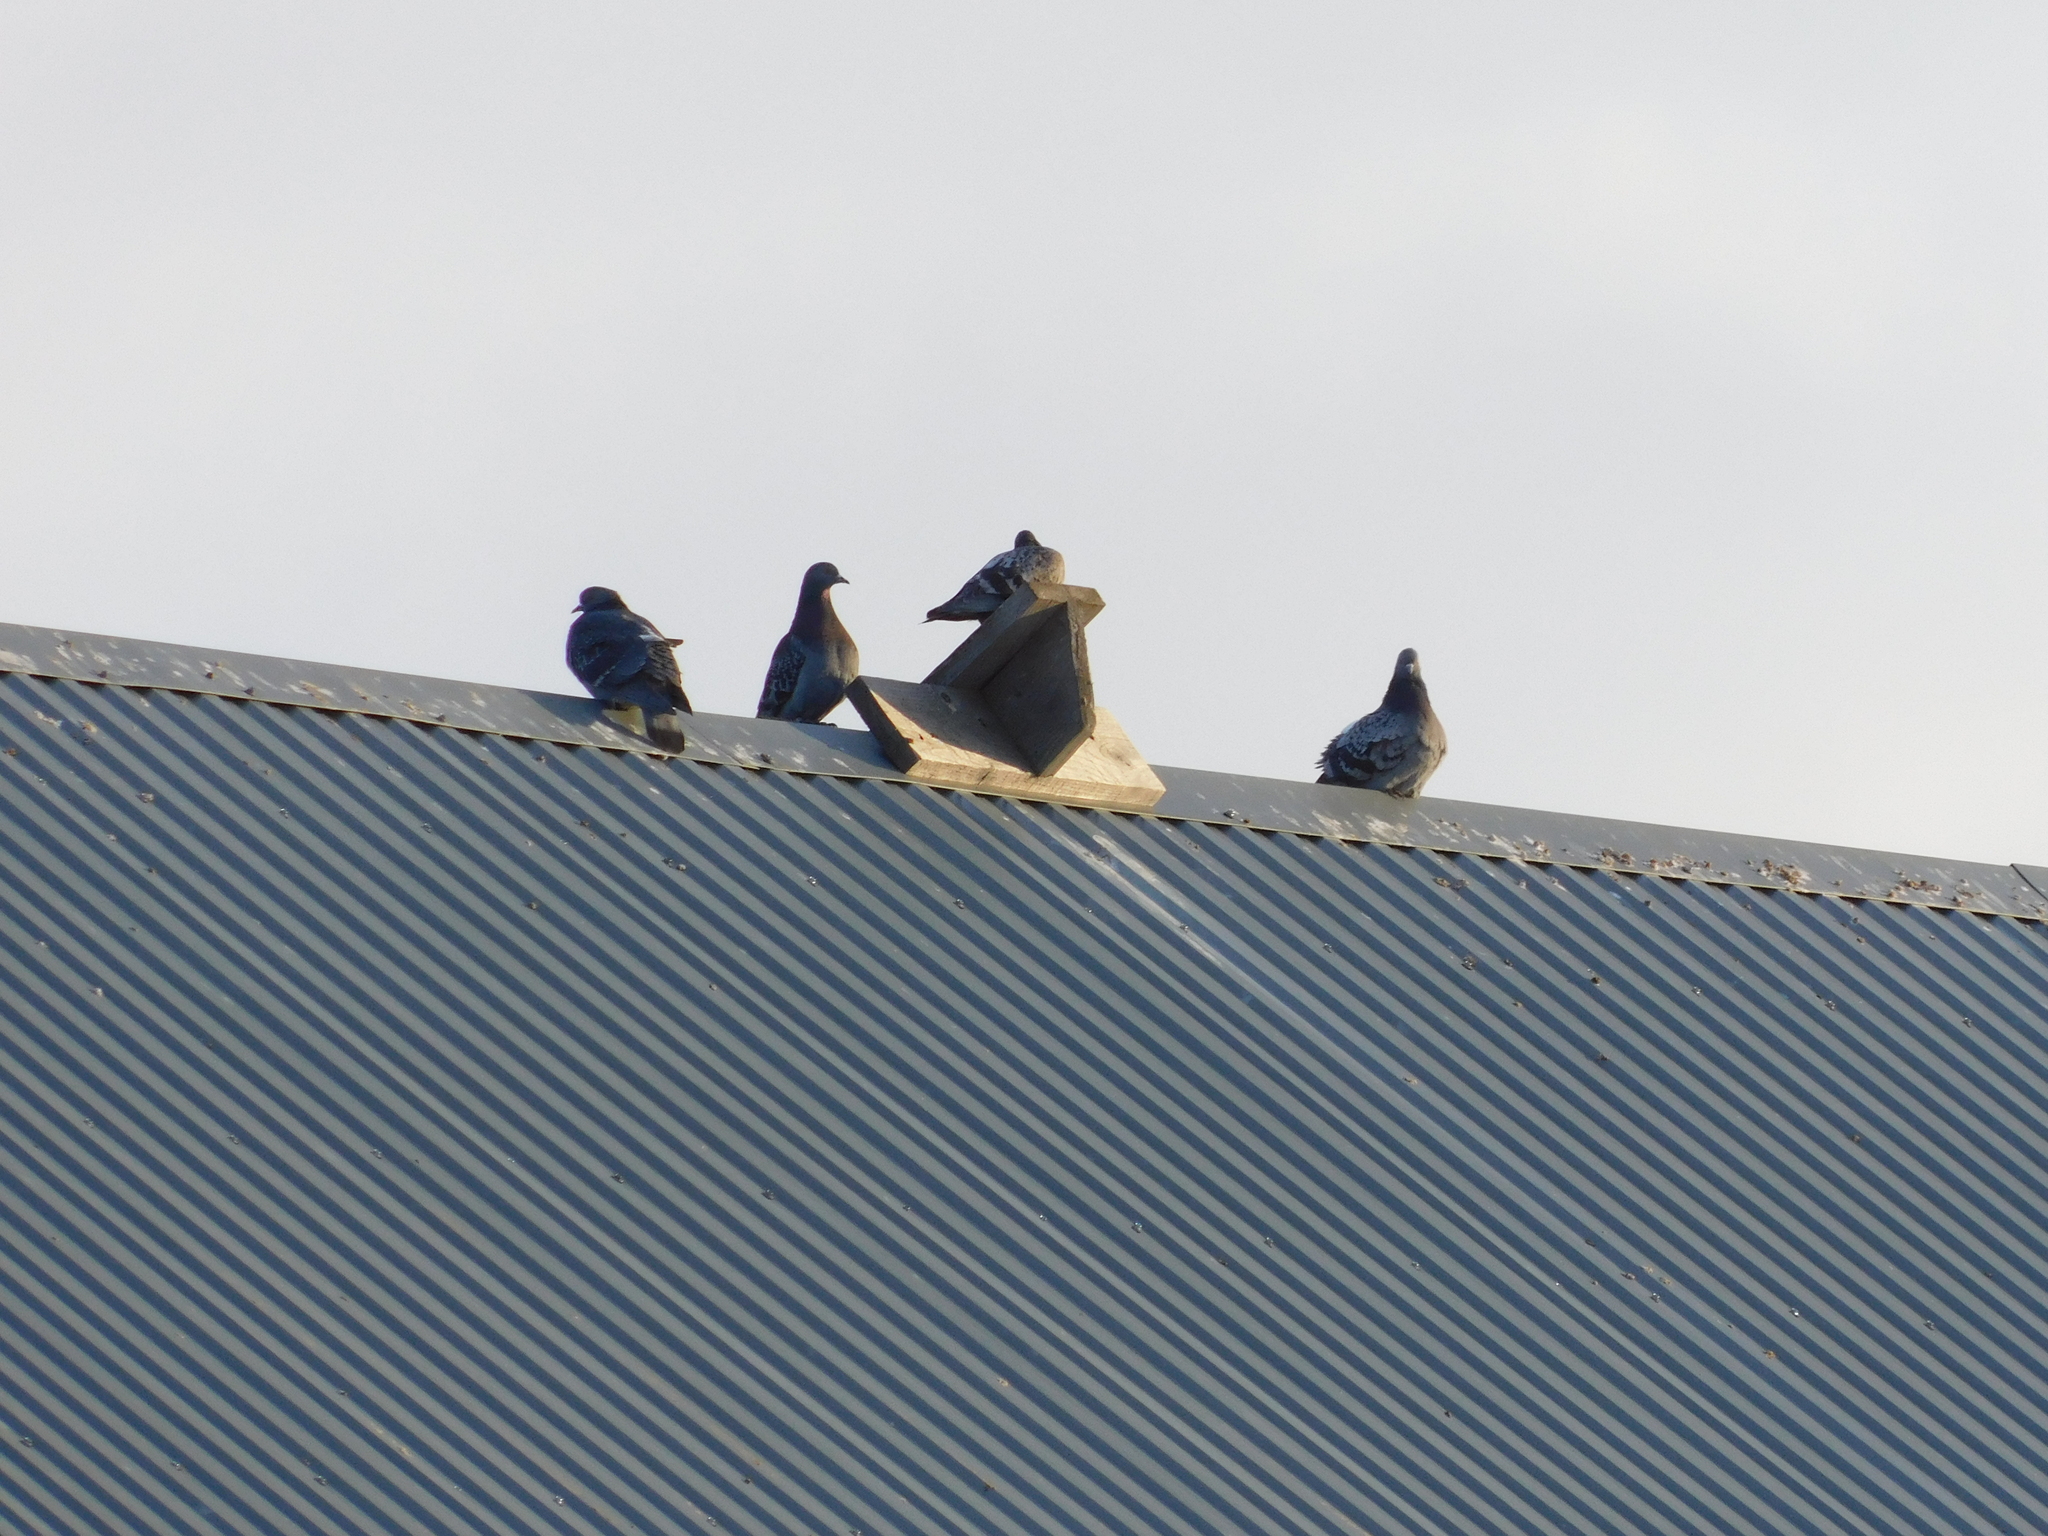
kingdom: Animalia
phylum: Chordata
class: Aves
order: Columbiformes
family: Columbidae
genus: Columba
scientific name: Columba livia
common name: Rock pigeon
